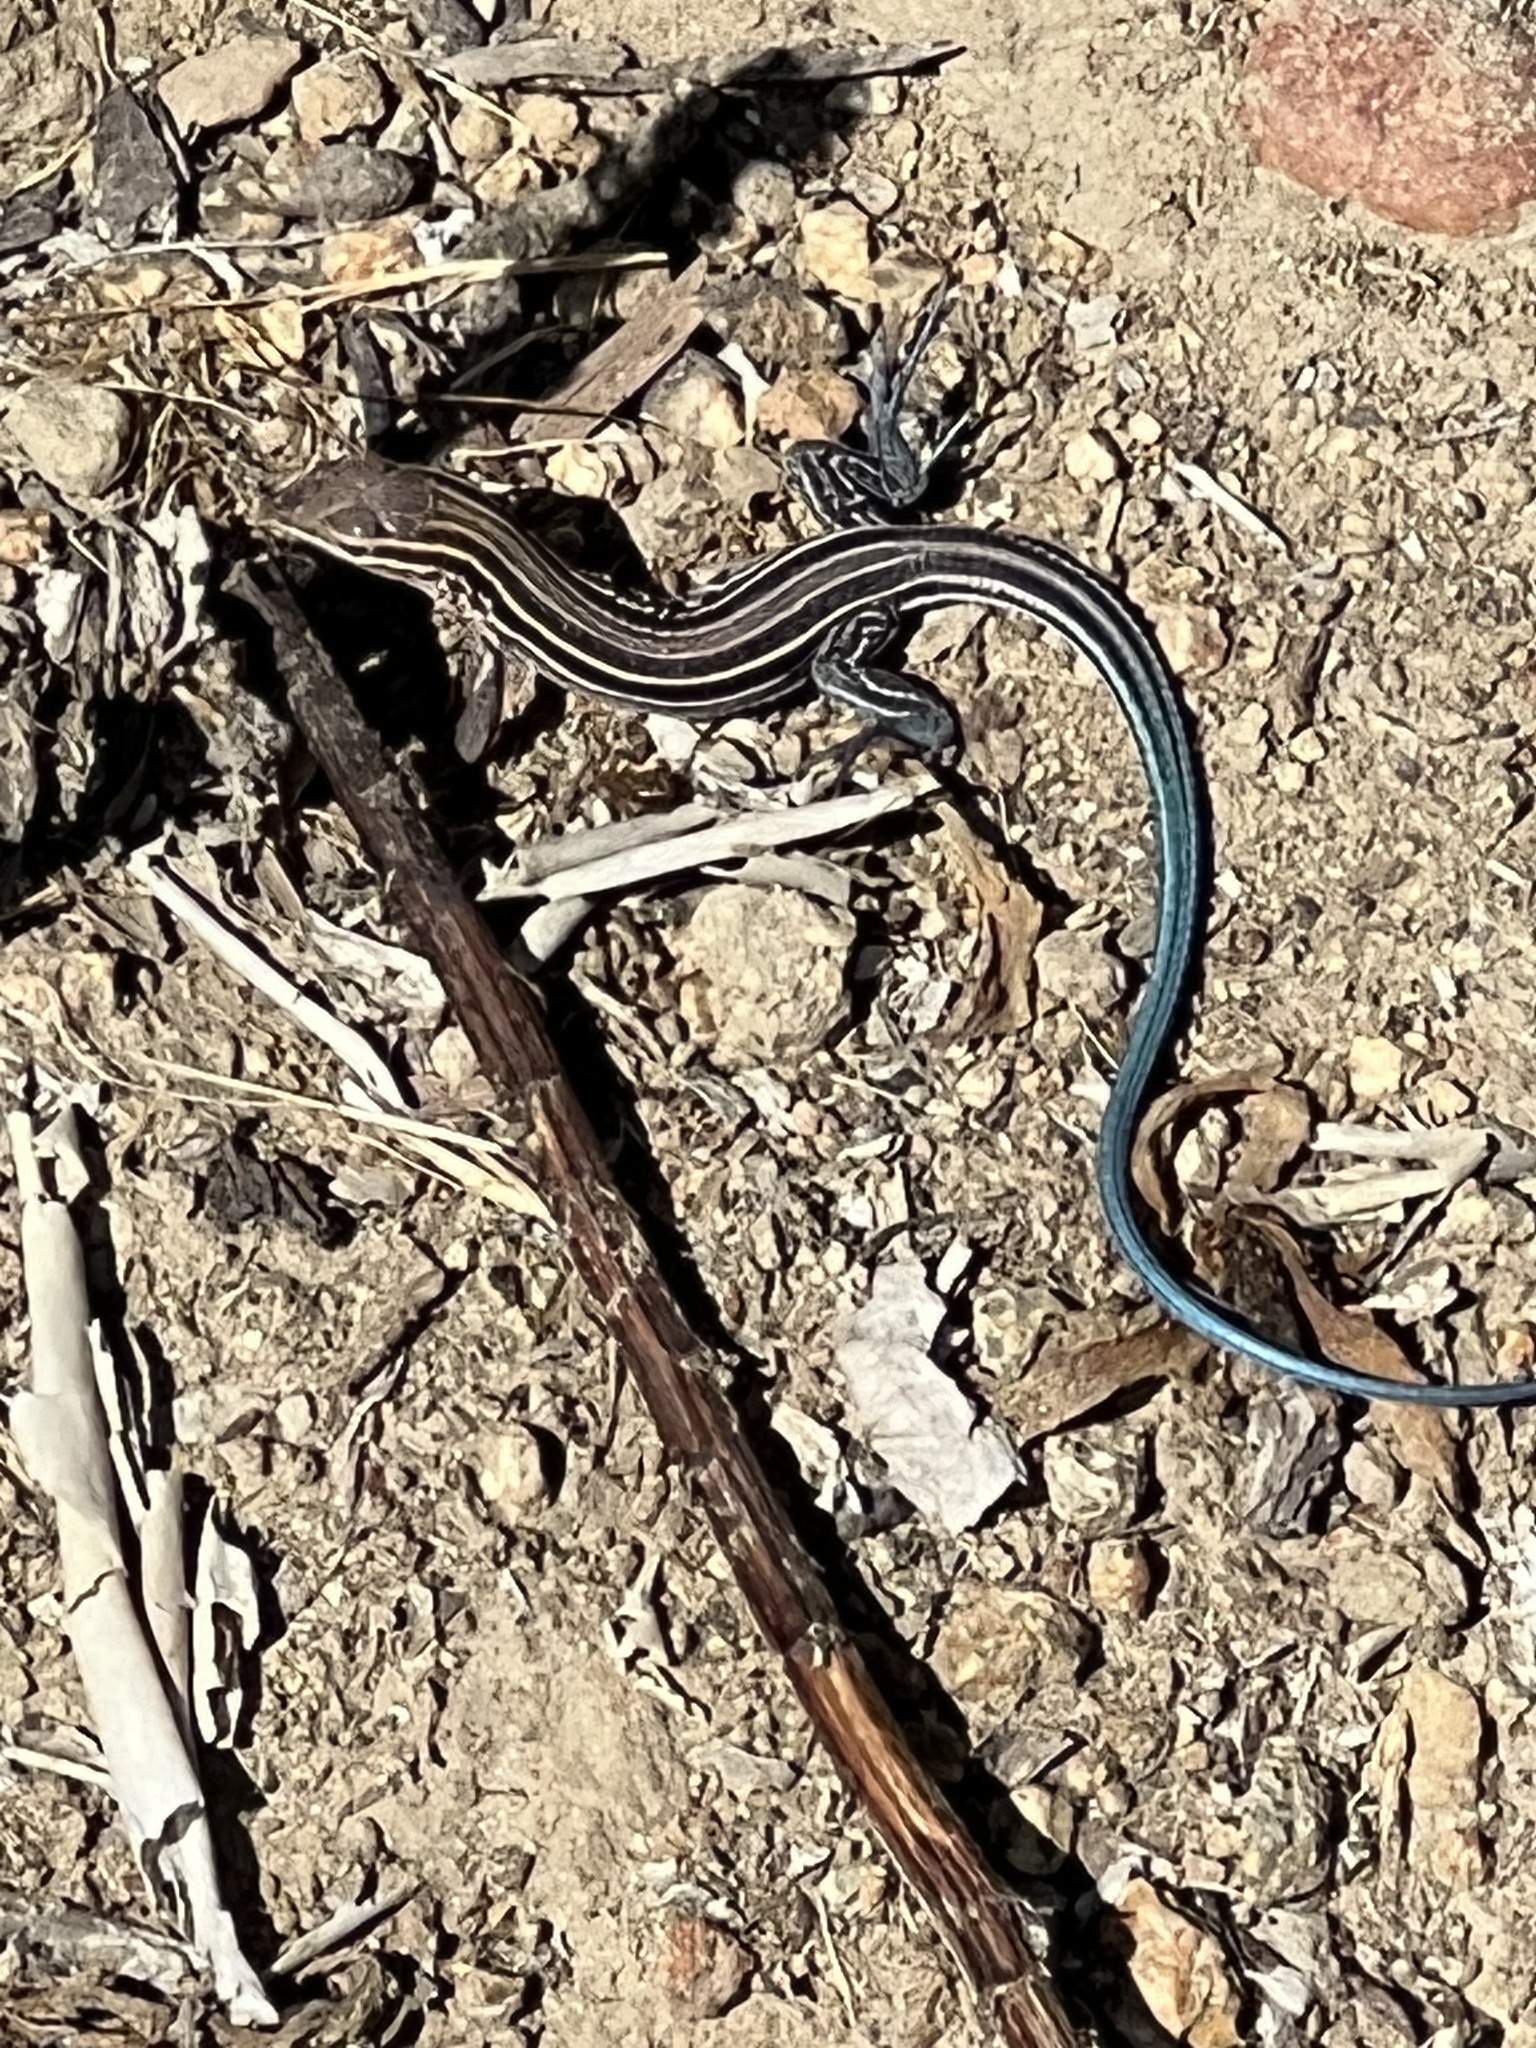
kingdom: Animalia
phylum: Chordata
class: Squamata
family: Teiidae
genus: Aspidoscelis
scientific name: Aspidoscelis hyperythrus
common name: Orange-throated race-runner
